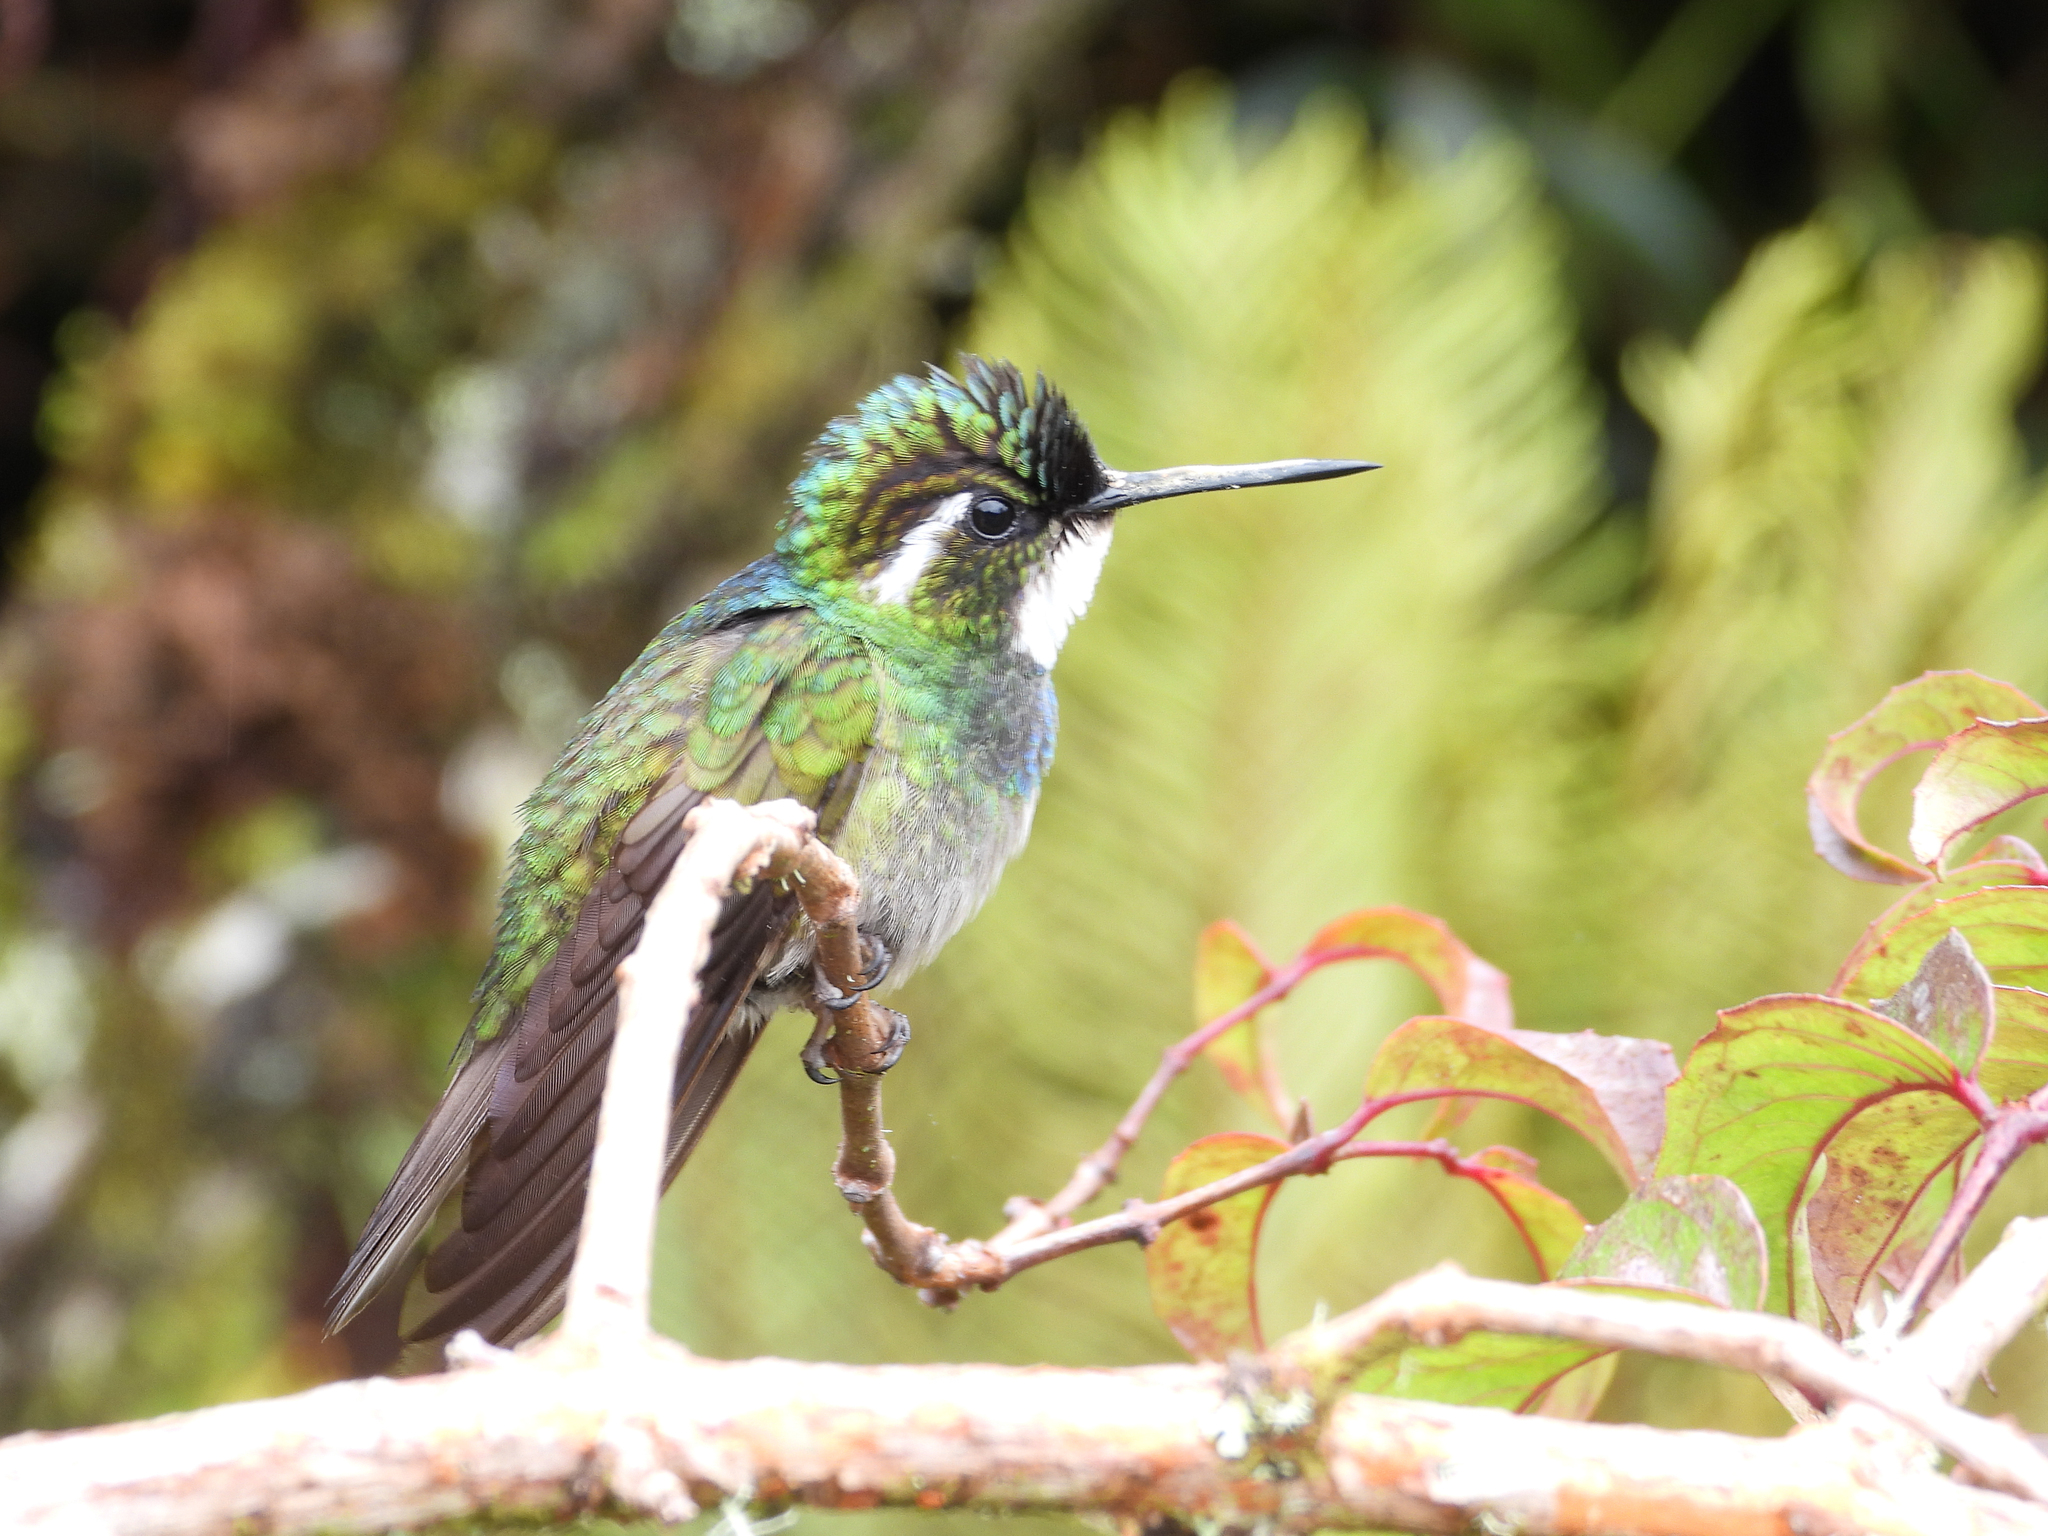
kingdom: Animalia
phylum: Chordata
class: Aves
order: Apodiformes
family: Trochilidae
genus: Lampornis
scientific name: Lampornis castaneoventris
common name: White-throated mountain-gem
